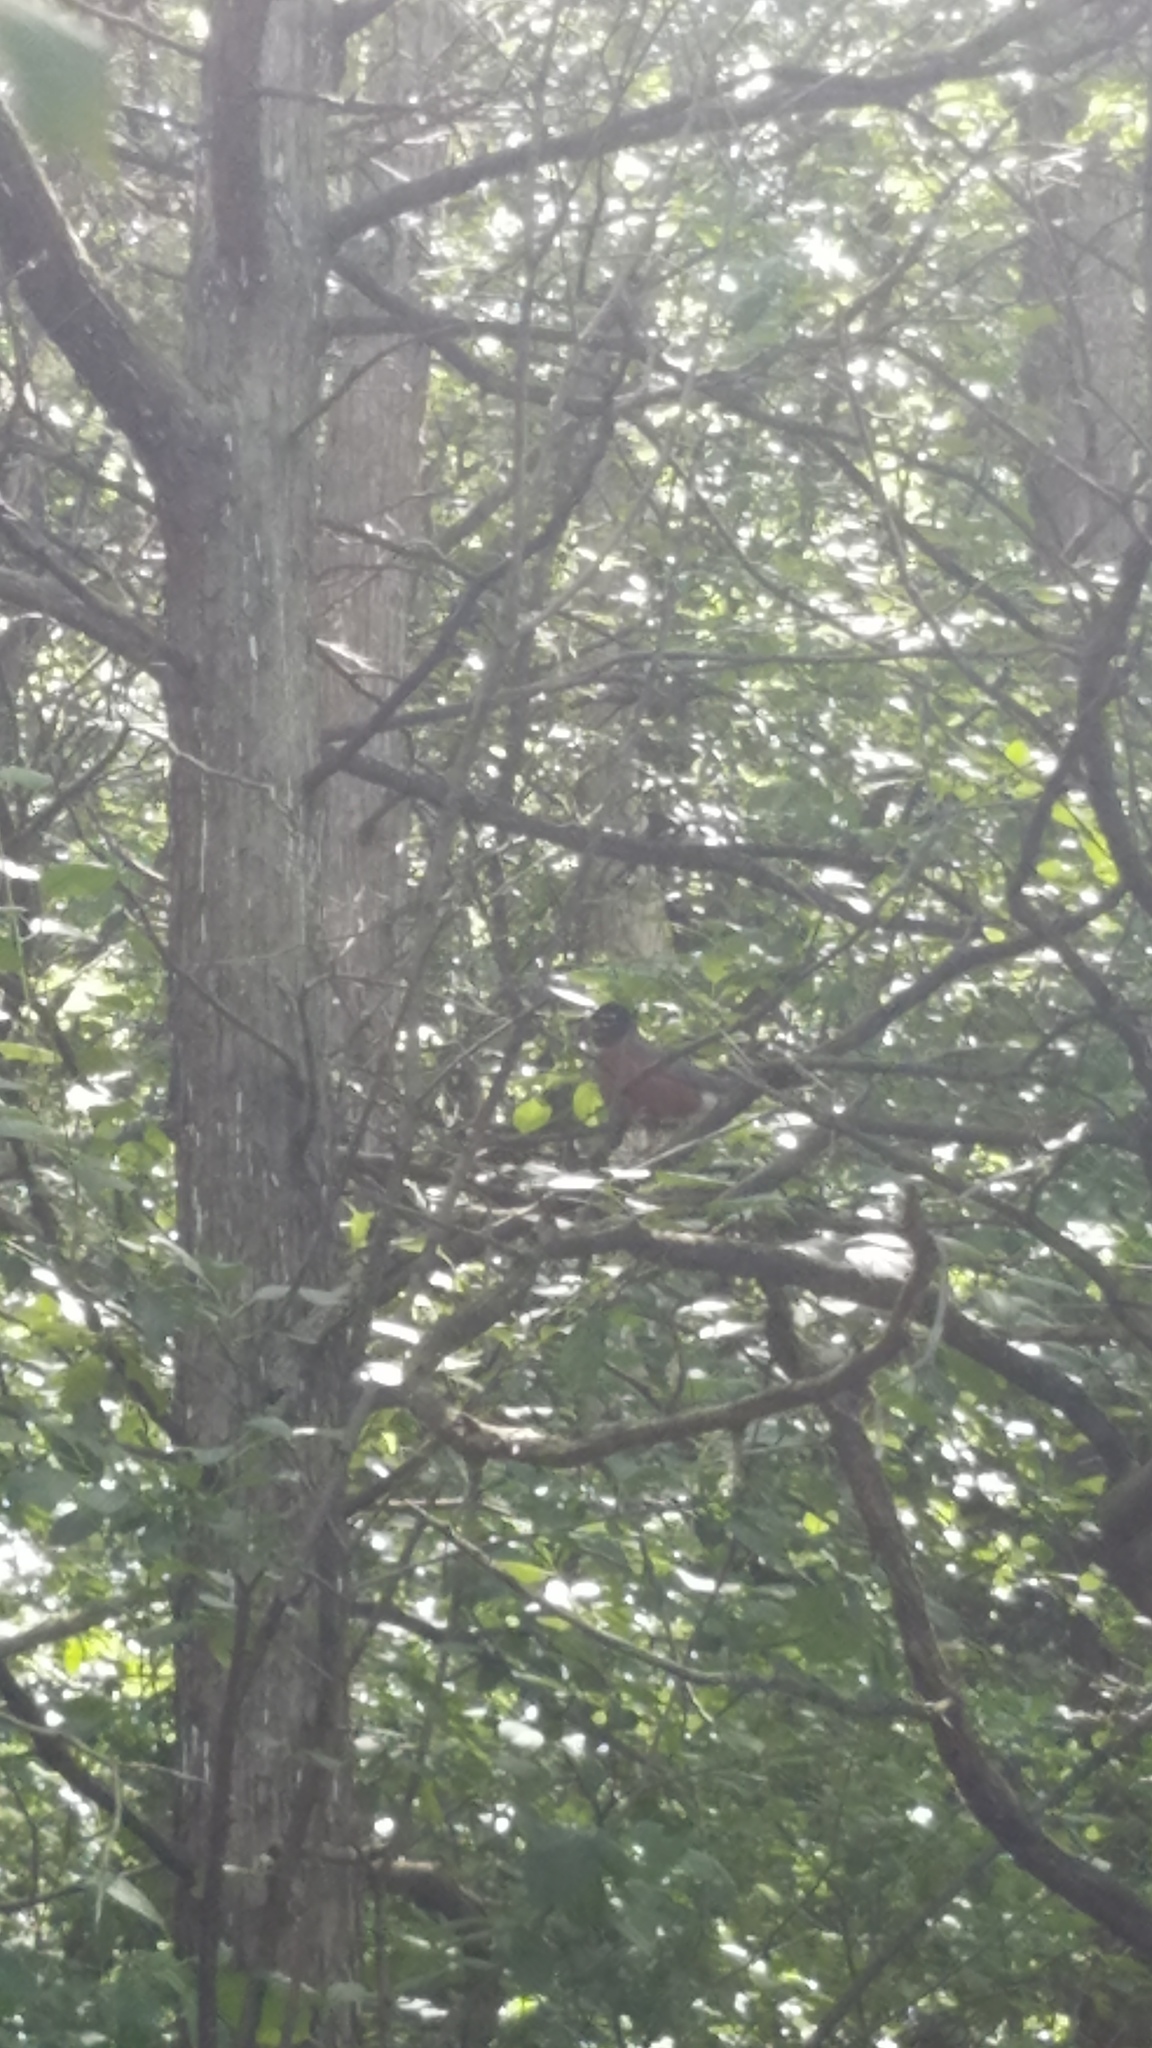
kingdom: Animalia
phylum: Chordata
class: Aves
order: Passeriformes
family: Turdidae
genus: Turdus
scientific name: Turdus migratorius
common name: American robin
